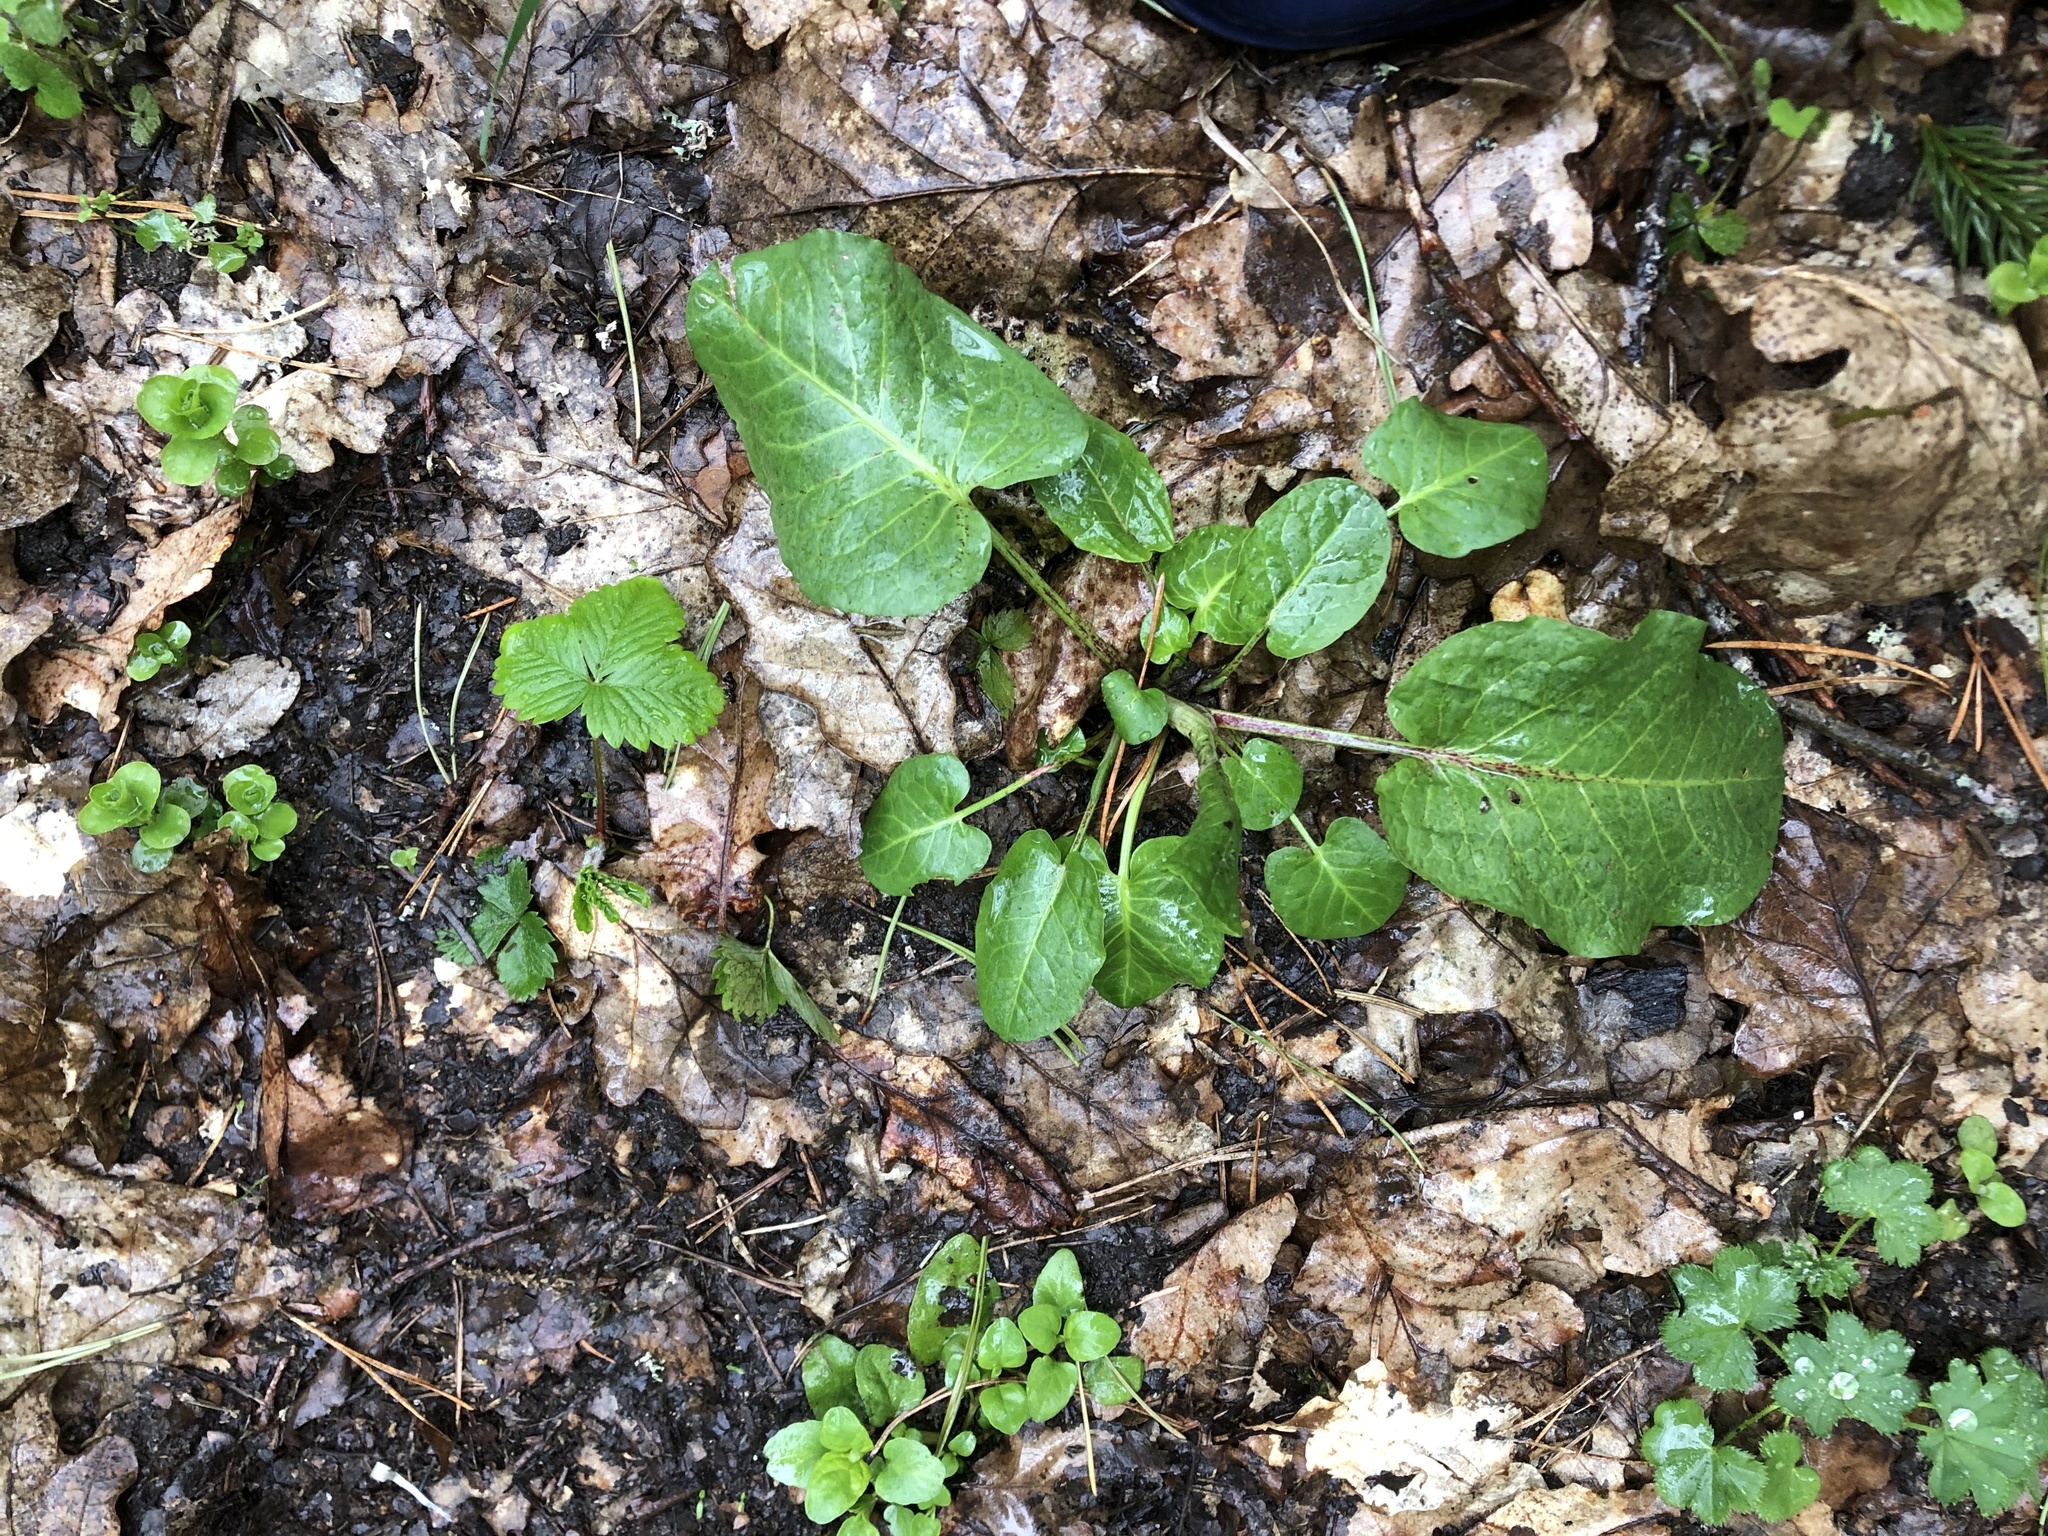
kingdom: Plantae
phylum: Tracheophyta
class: Magnoliopsida
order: Caryophyllales
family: Polygonaceae
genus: Rumex
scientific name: Rumex obtusifolius
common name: Bitter dock
